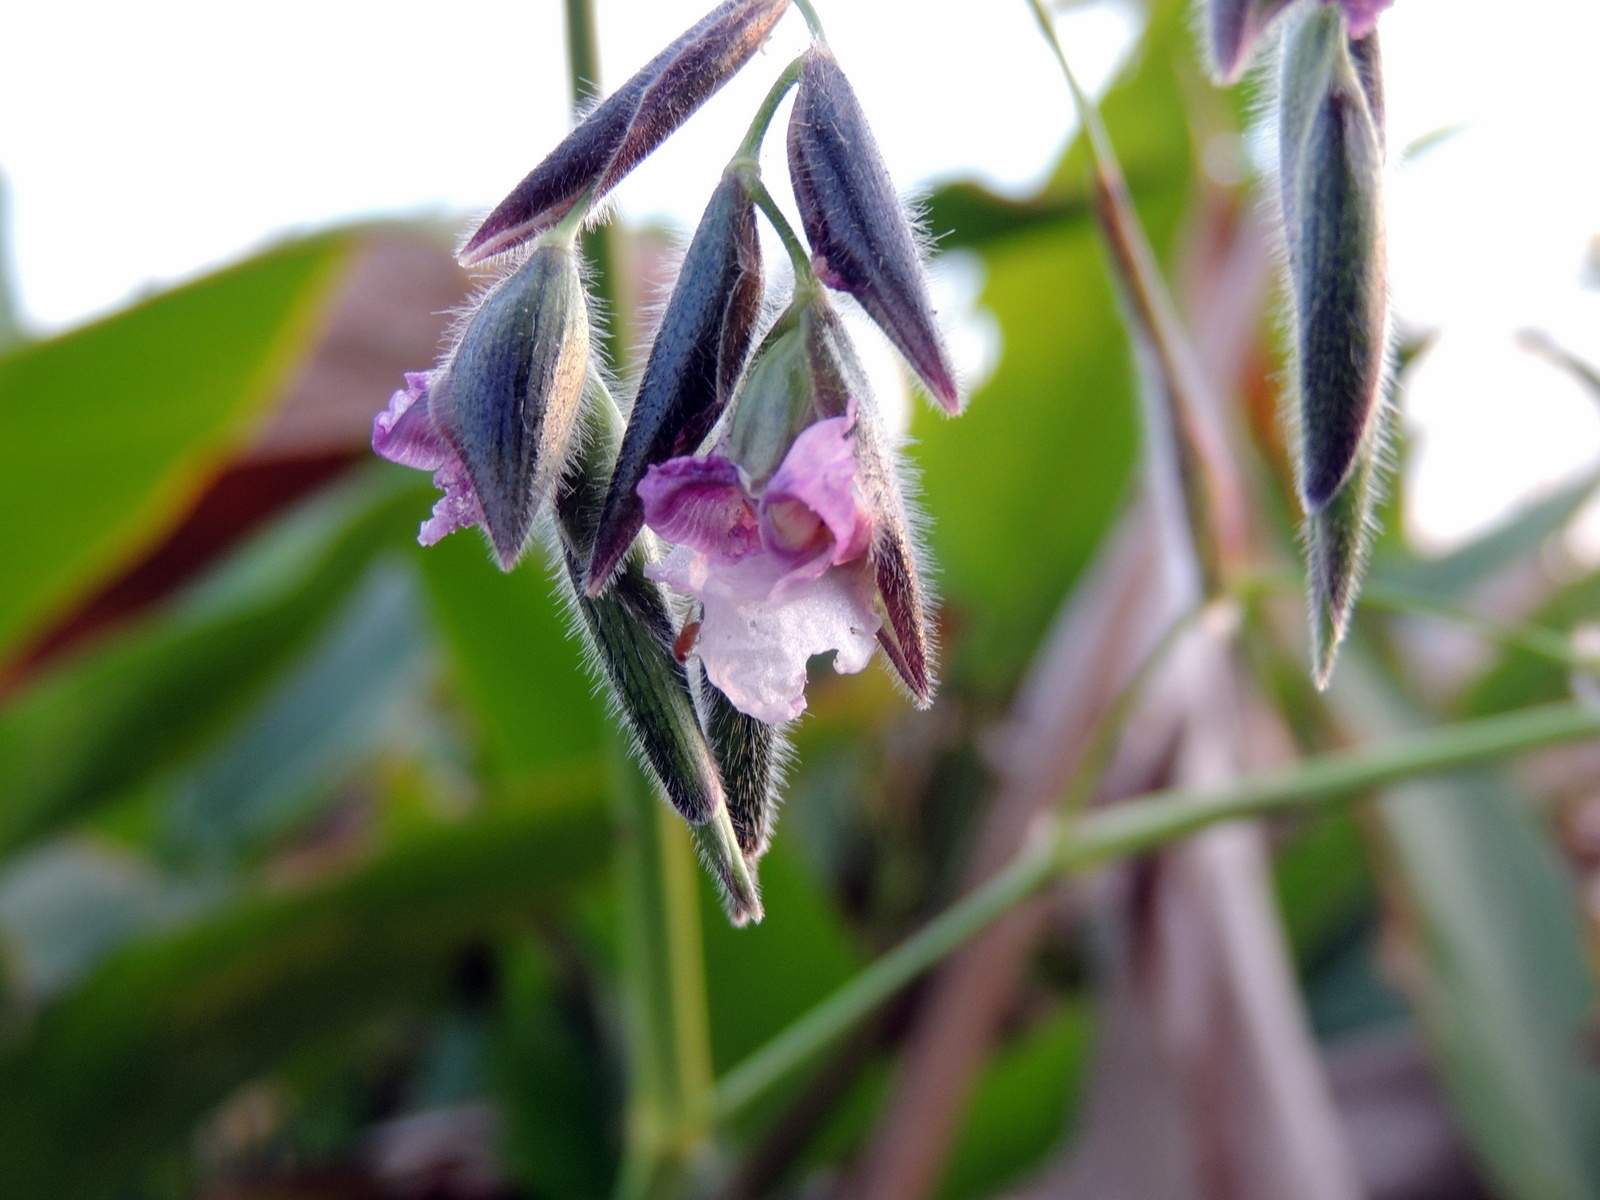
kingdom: Plantae
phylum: Tracheophyta
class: Liliopsida
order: Zingiberales
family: Marantaceae
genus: Thalia
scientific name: Thalia geniculata
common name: Arrowroot
